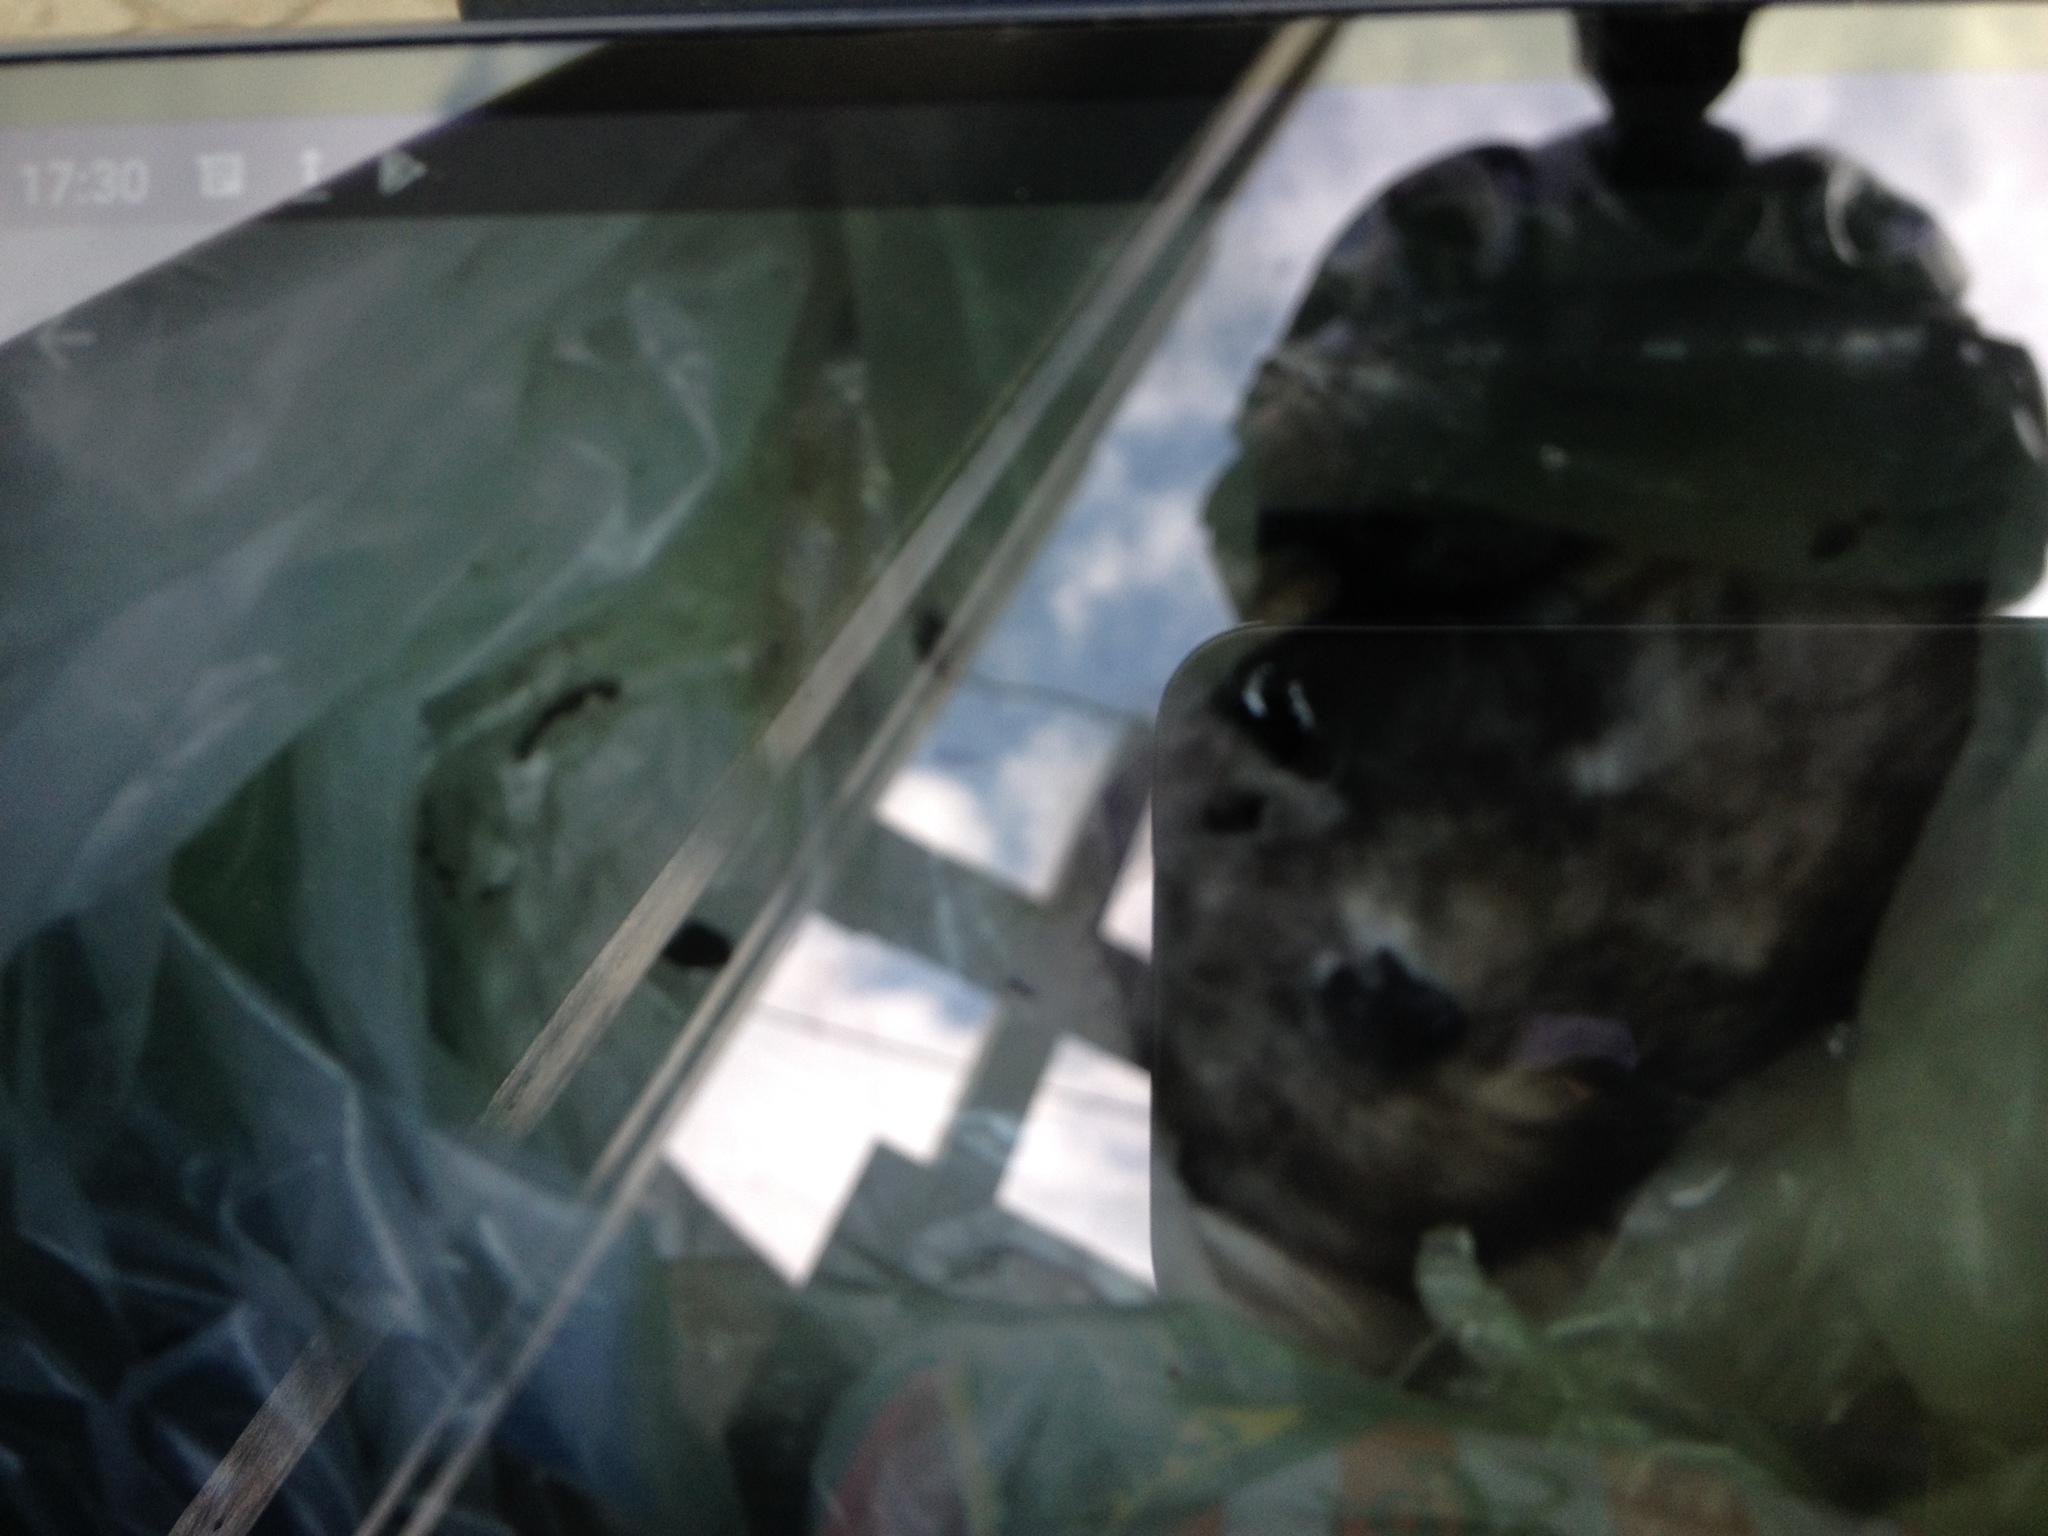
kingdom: Animalia
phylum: Chordata
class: Mammalia
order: Didelphimorphia
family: Didelphidae
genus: Didelphis
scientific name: Didelphis virginiana
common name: Virginia opossum
